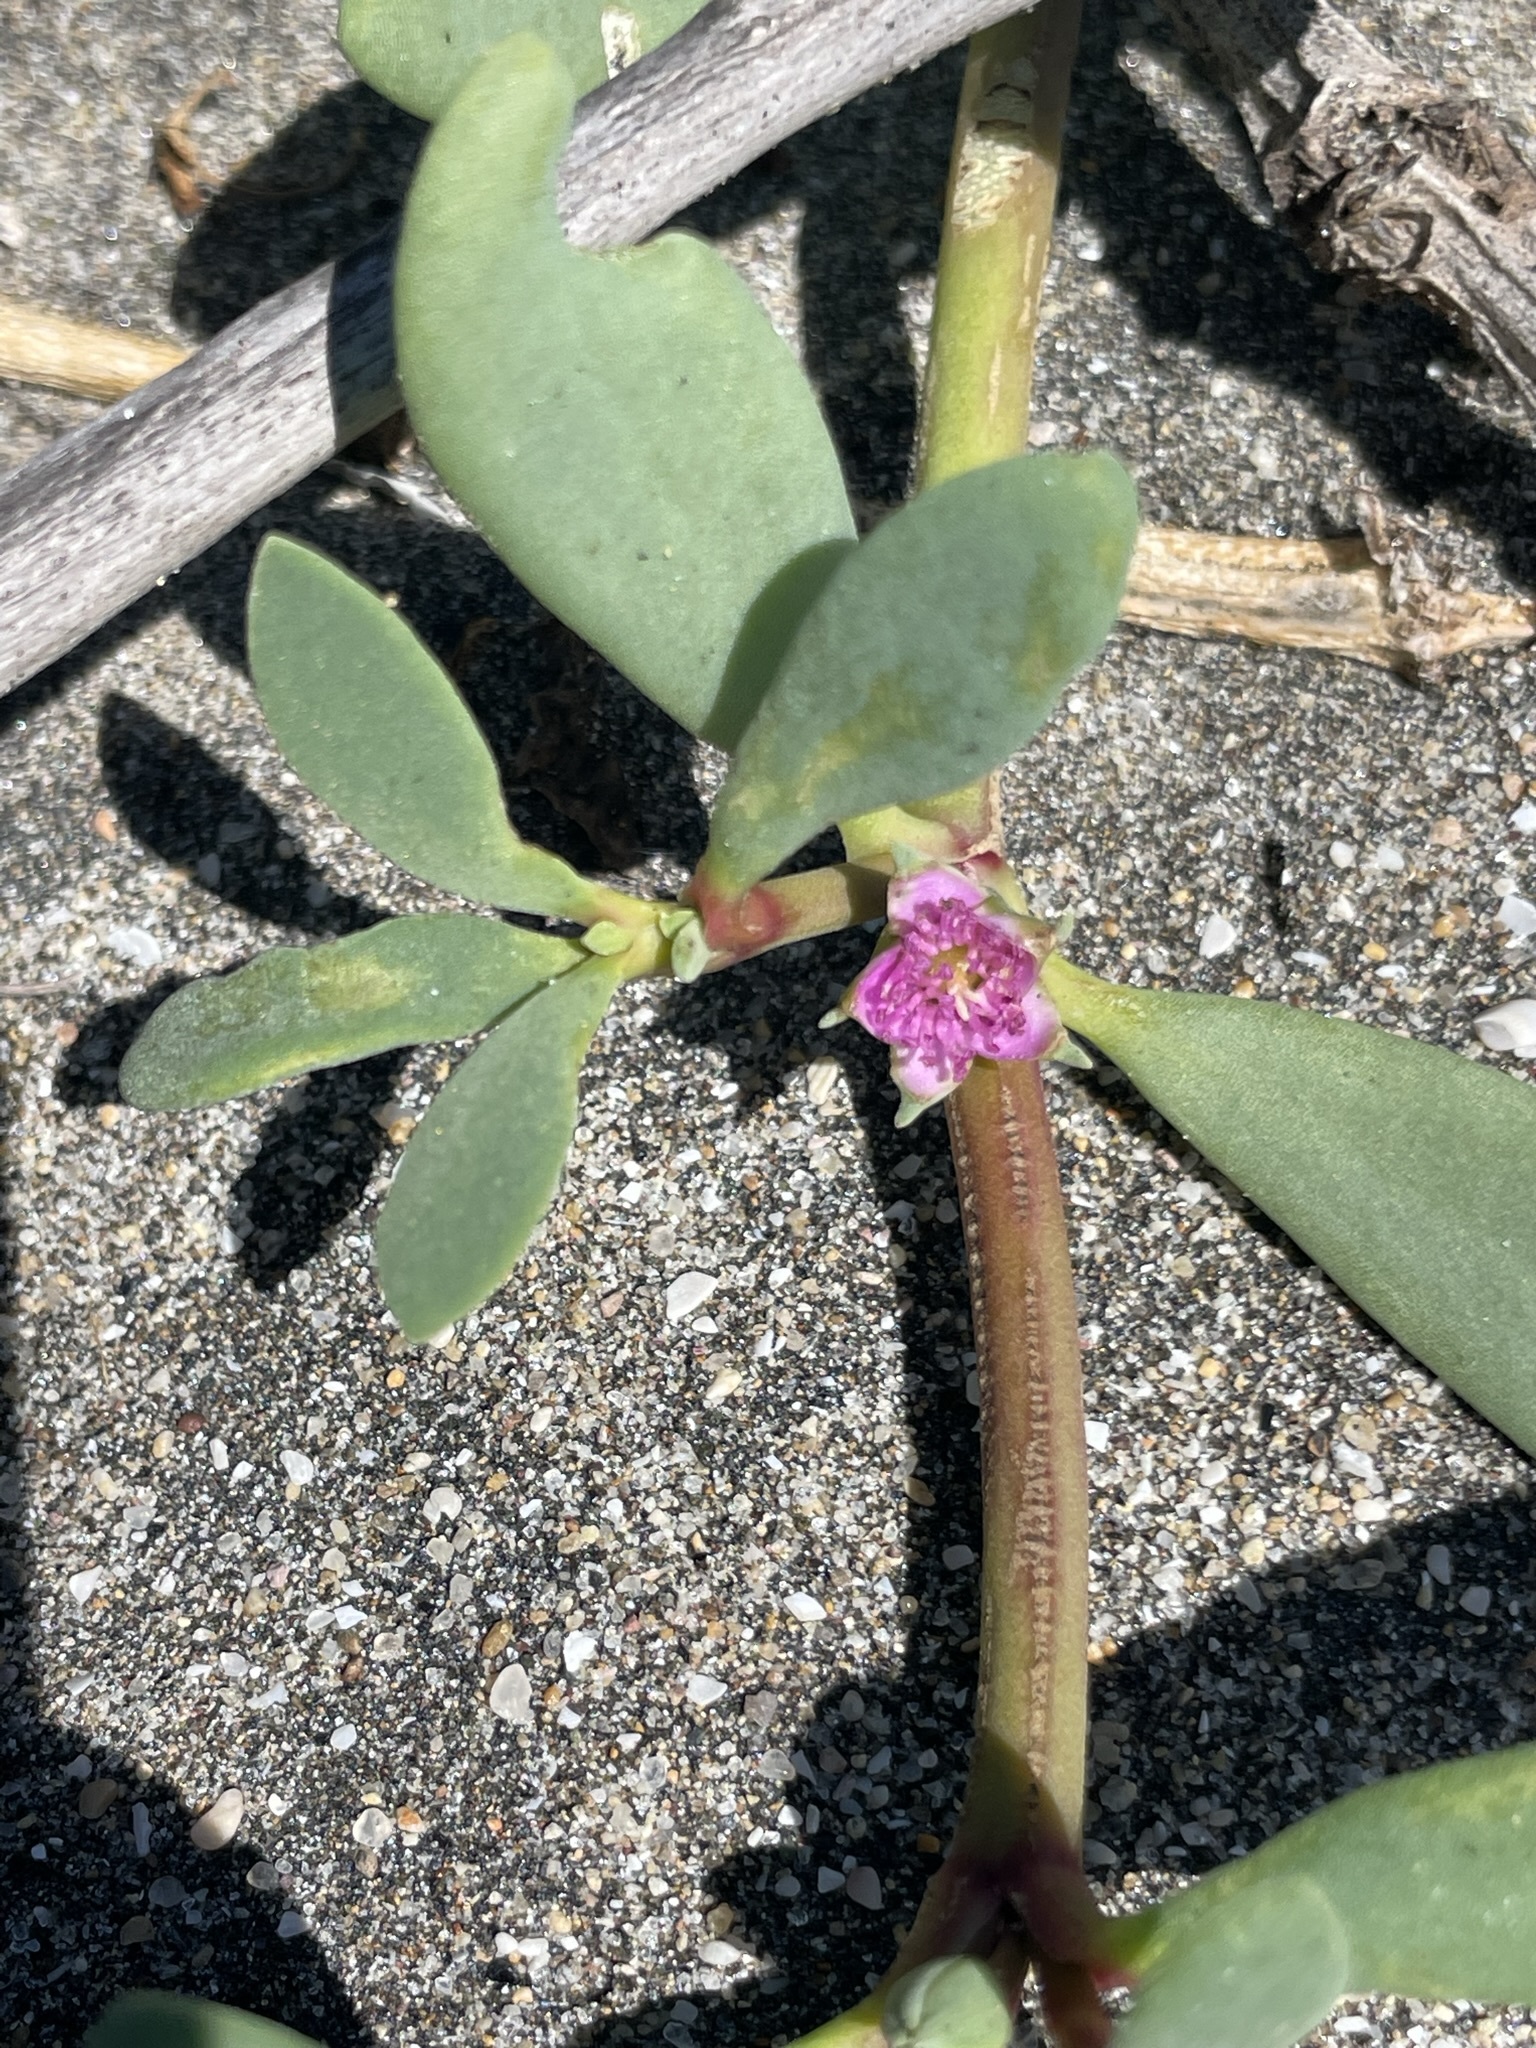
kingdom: Plantae
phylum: Tracheophyta
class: Magnoliopsida
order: Caryophyllales
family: Aizoaceae
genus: Sesuvium
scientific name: Sesuvium portulacastrum
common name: Sea-purslane
